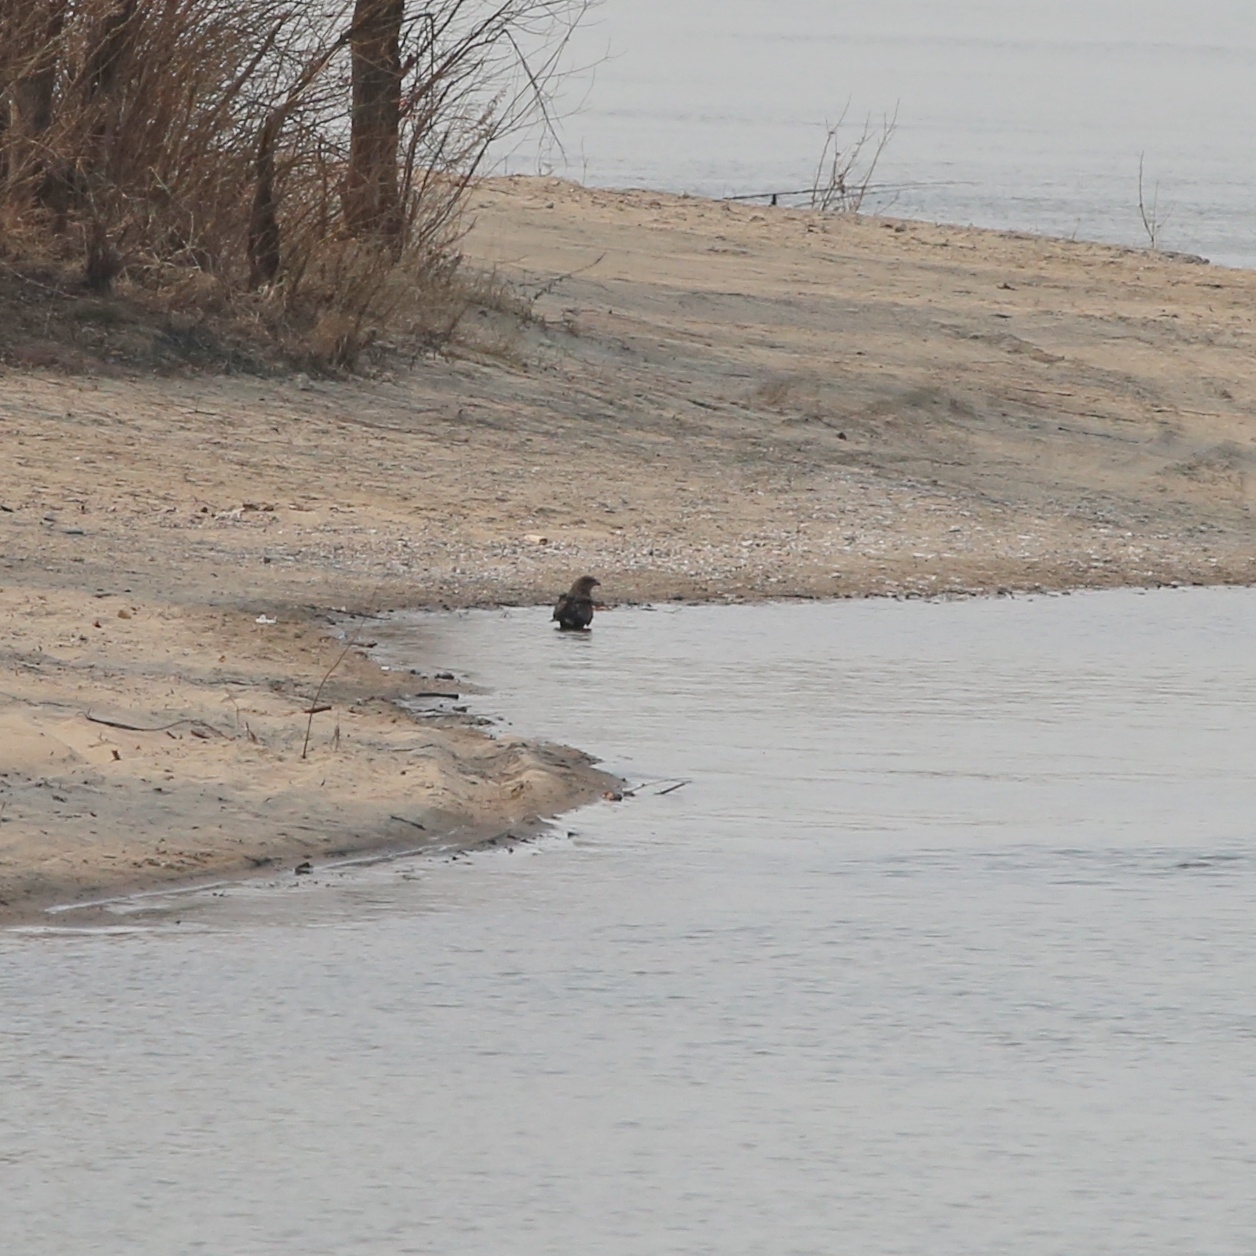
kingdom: Animalia
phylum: Chordata
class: Aves
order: Accipitriformes
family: Accipitridae
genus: Milvus
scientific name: Milvus migrans
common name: Black kite
